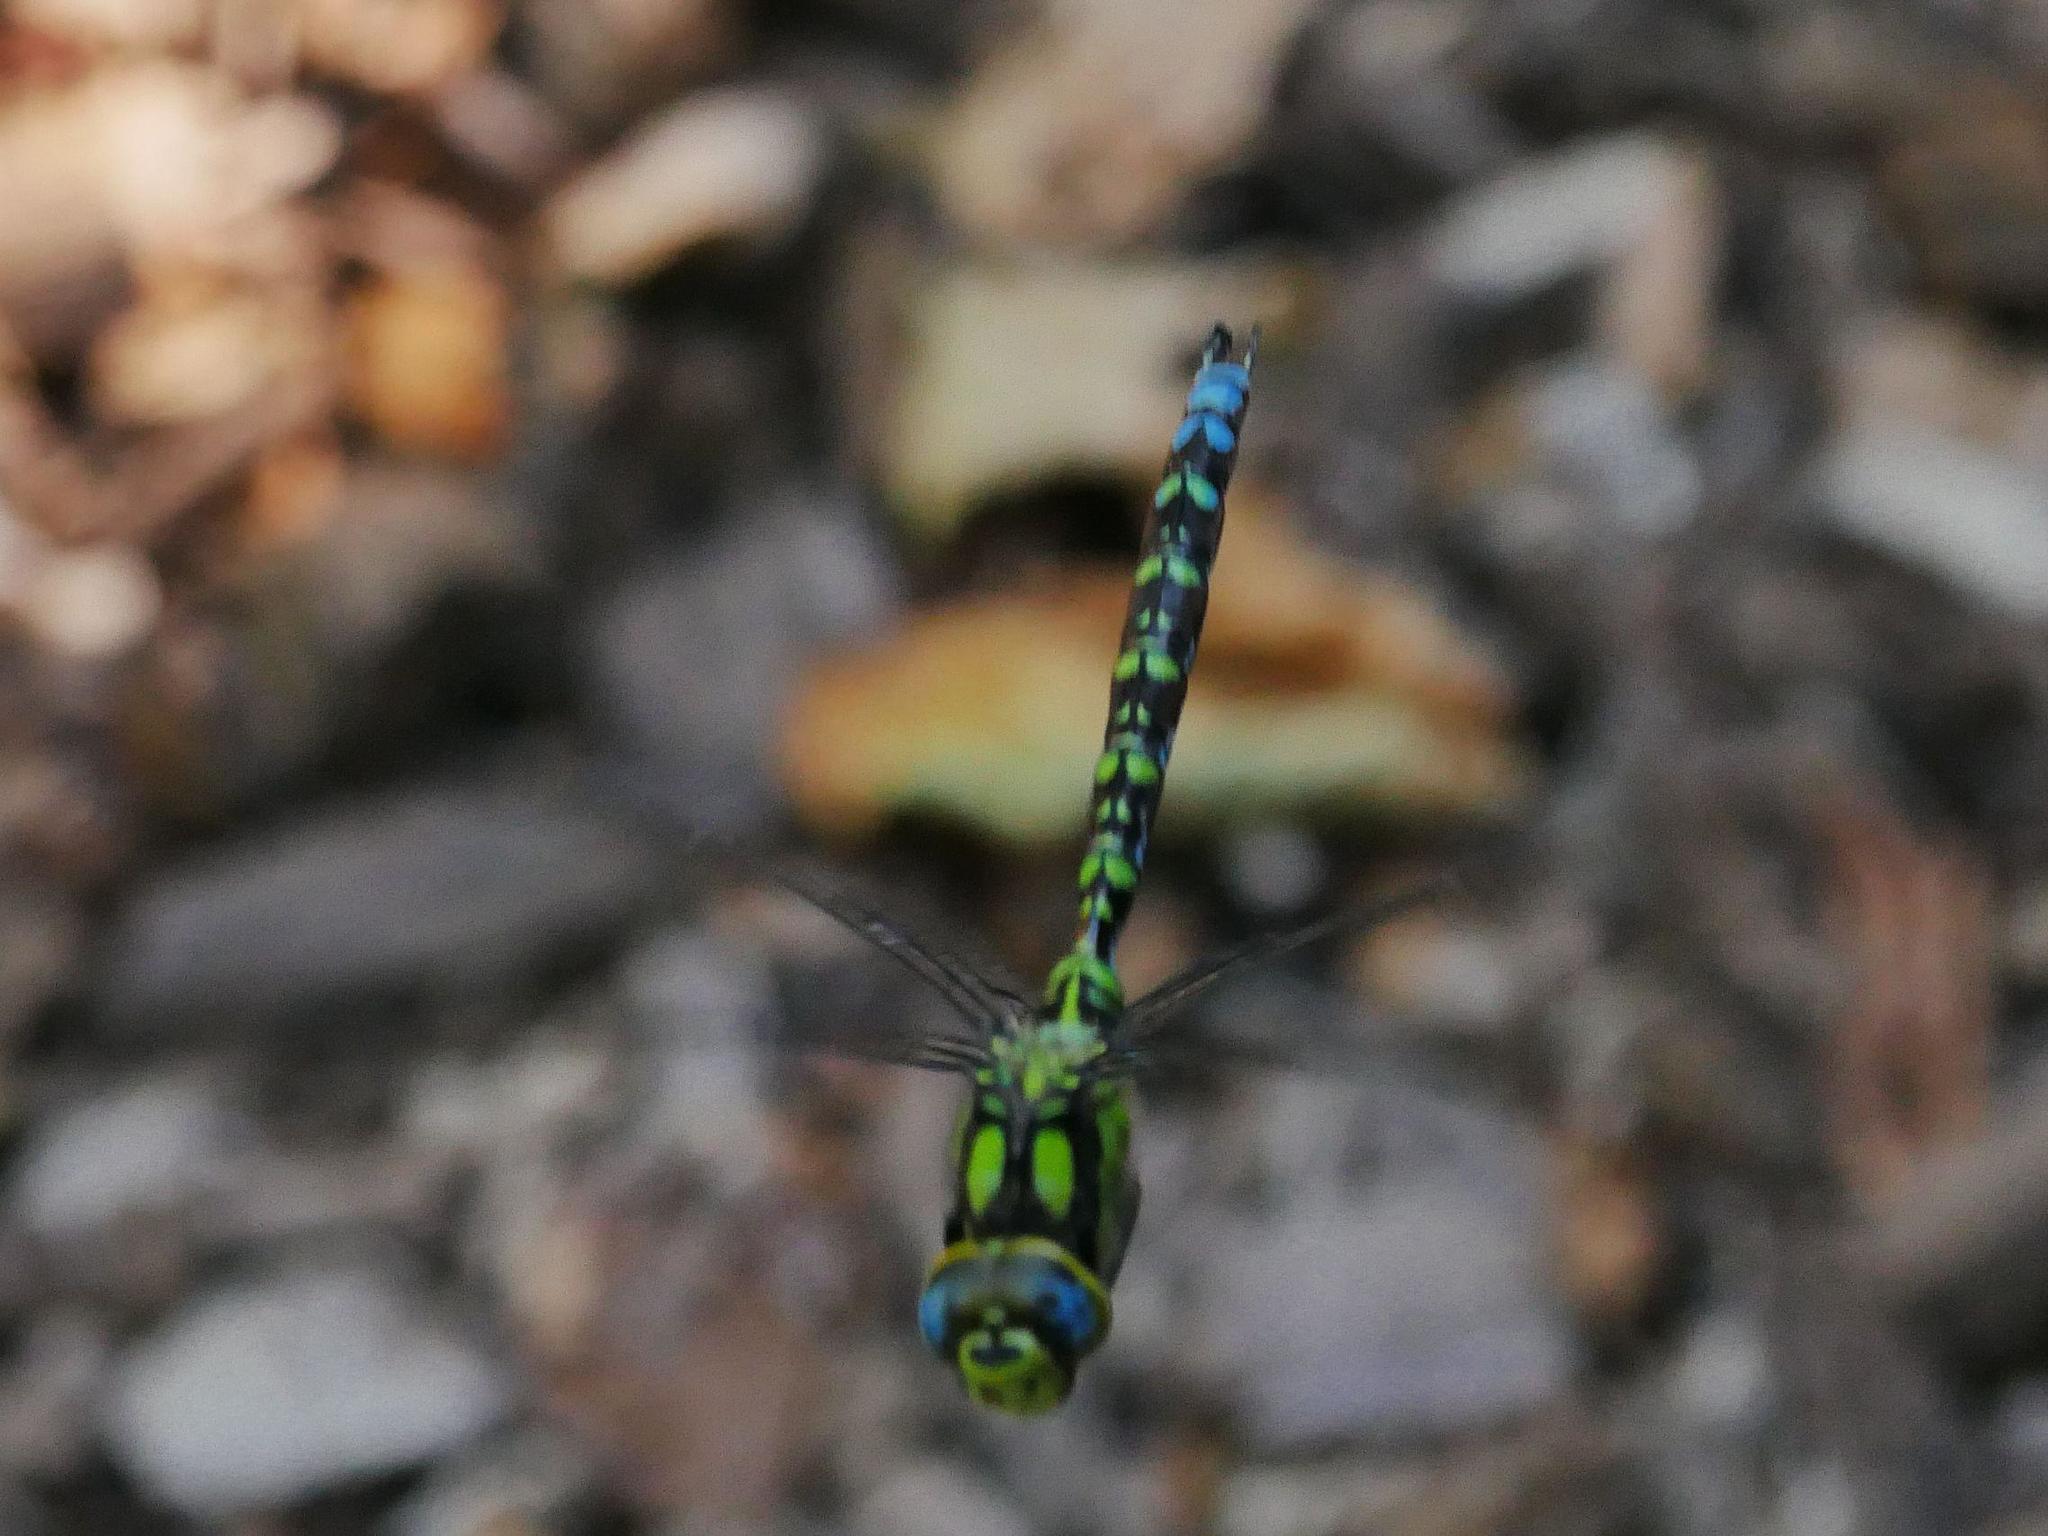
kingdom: Animalia
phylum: Arthropoda
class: Insecta
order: Odonata
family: Aeshnidae
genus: Aeshna
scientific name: Aeshna cyanea
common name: Southern hawker
